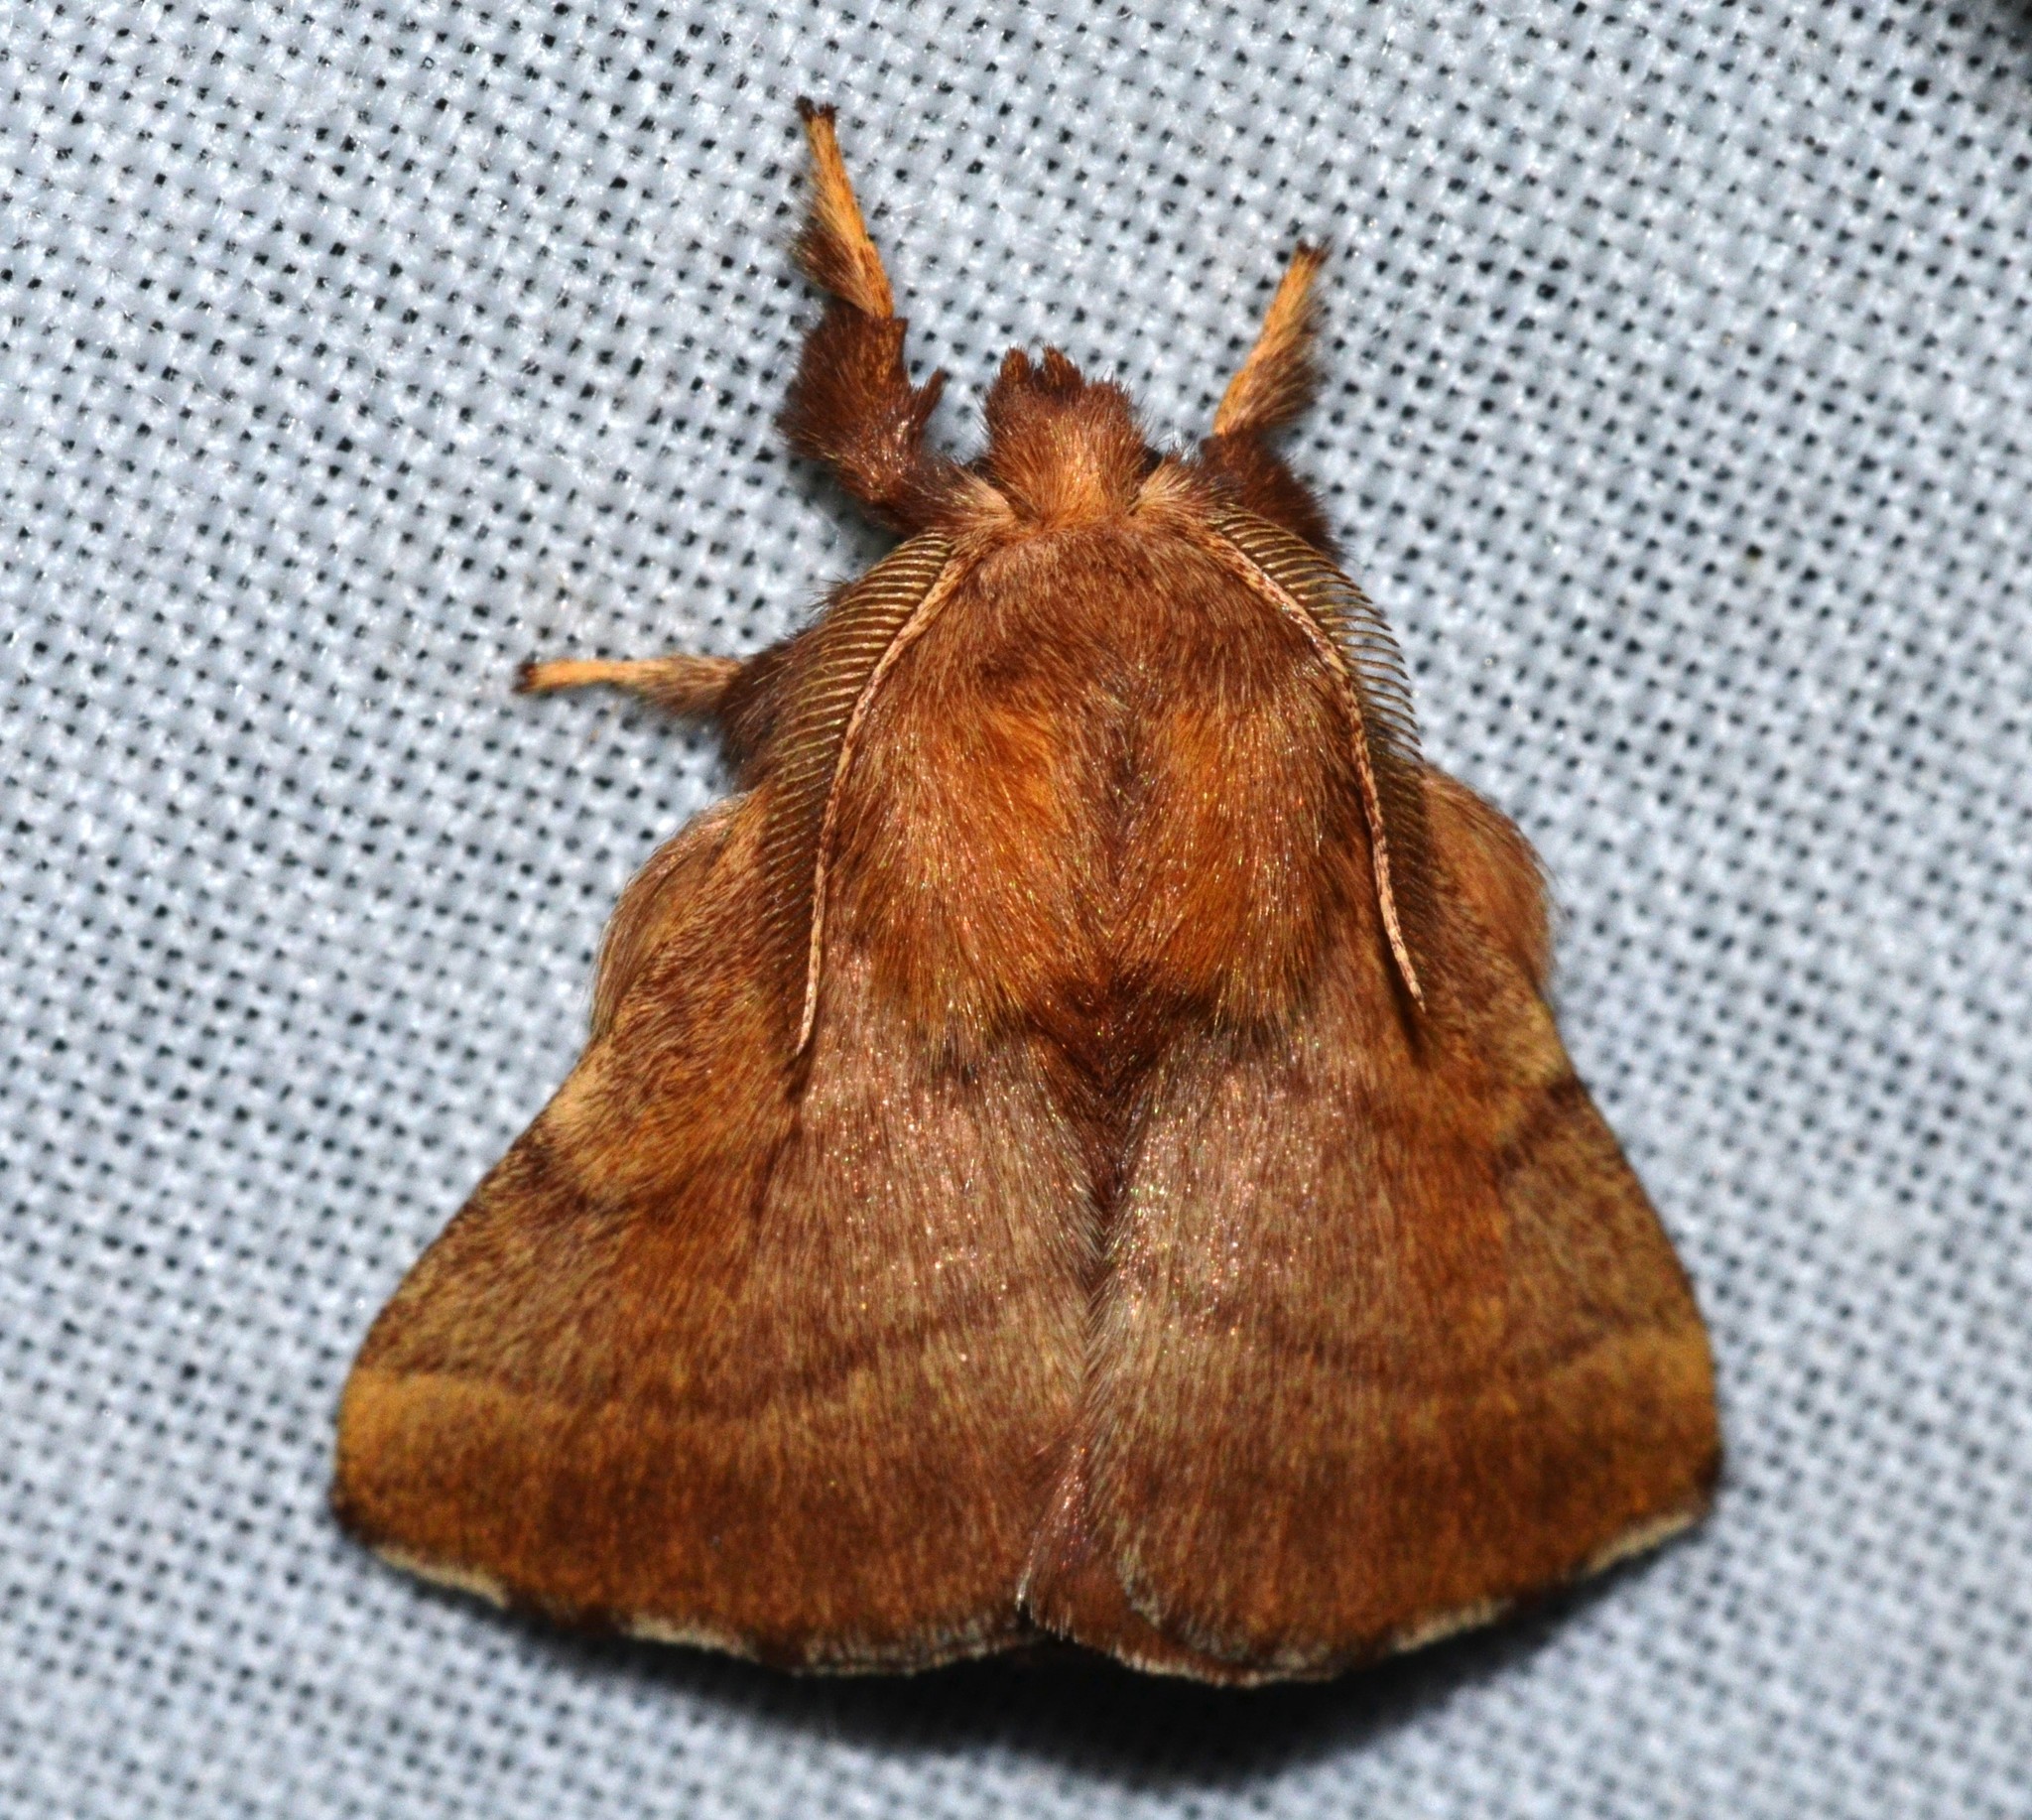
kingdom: Animalia
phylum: Arthropoda
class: Insecta
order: Lepidoptera
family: Lasiocampidae
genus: Malacosoma
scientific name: Malacosoma disstria
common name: Forest tent caterpillar
